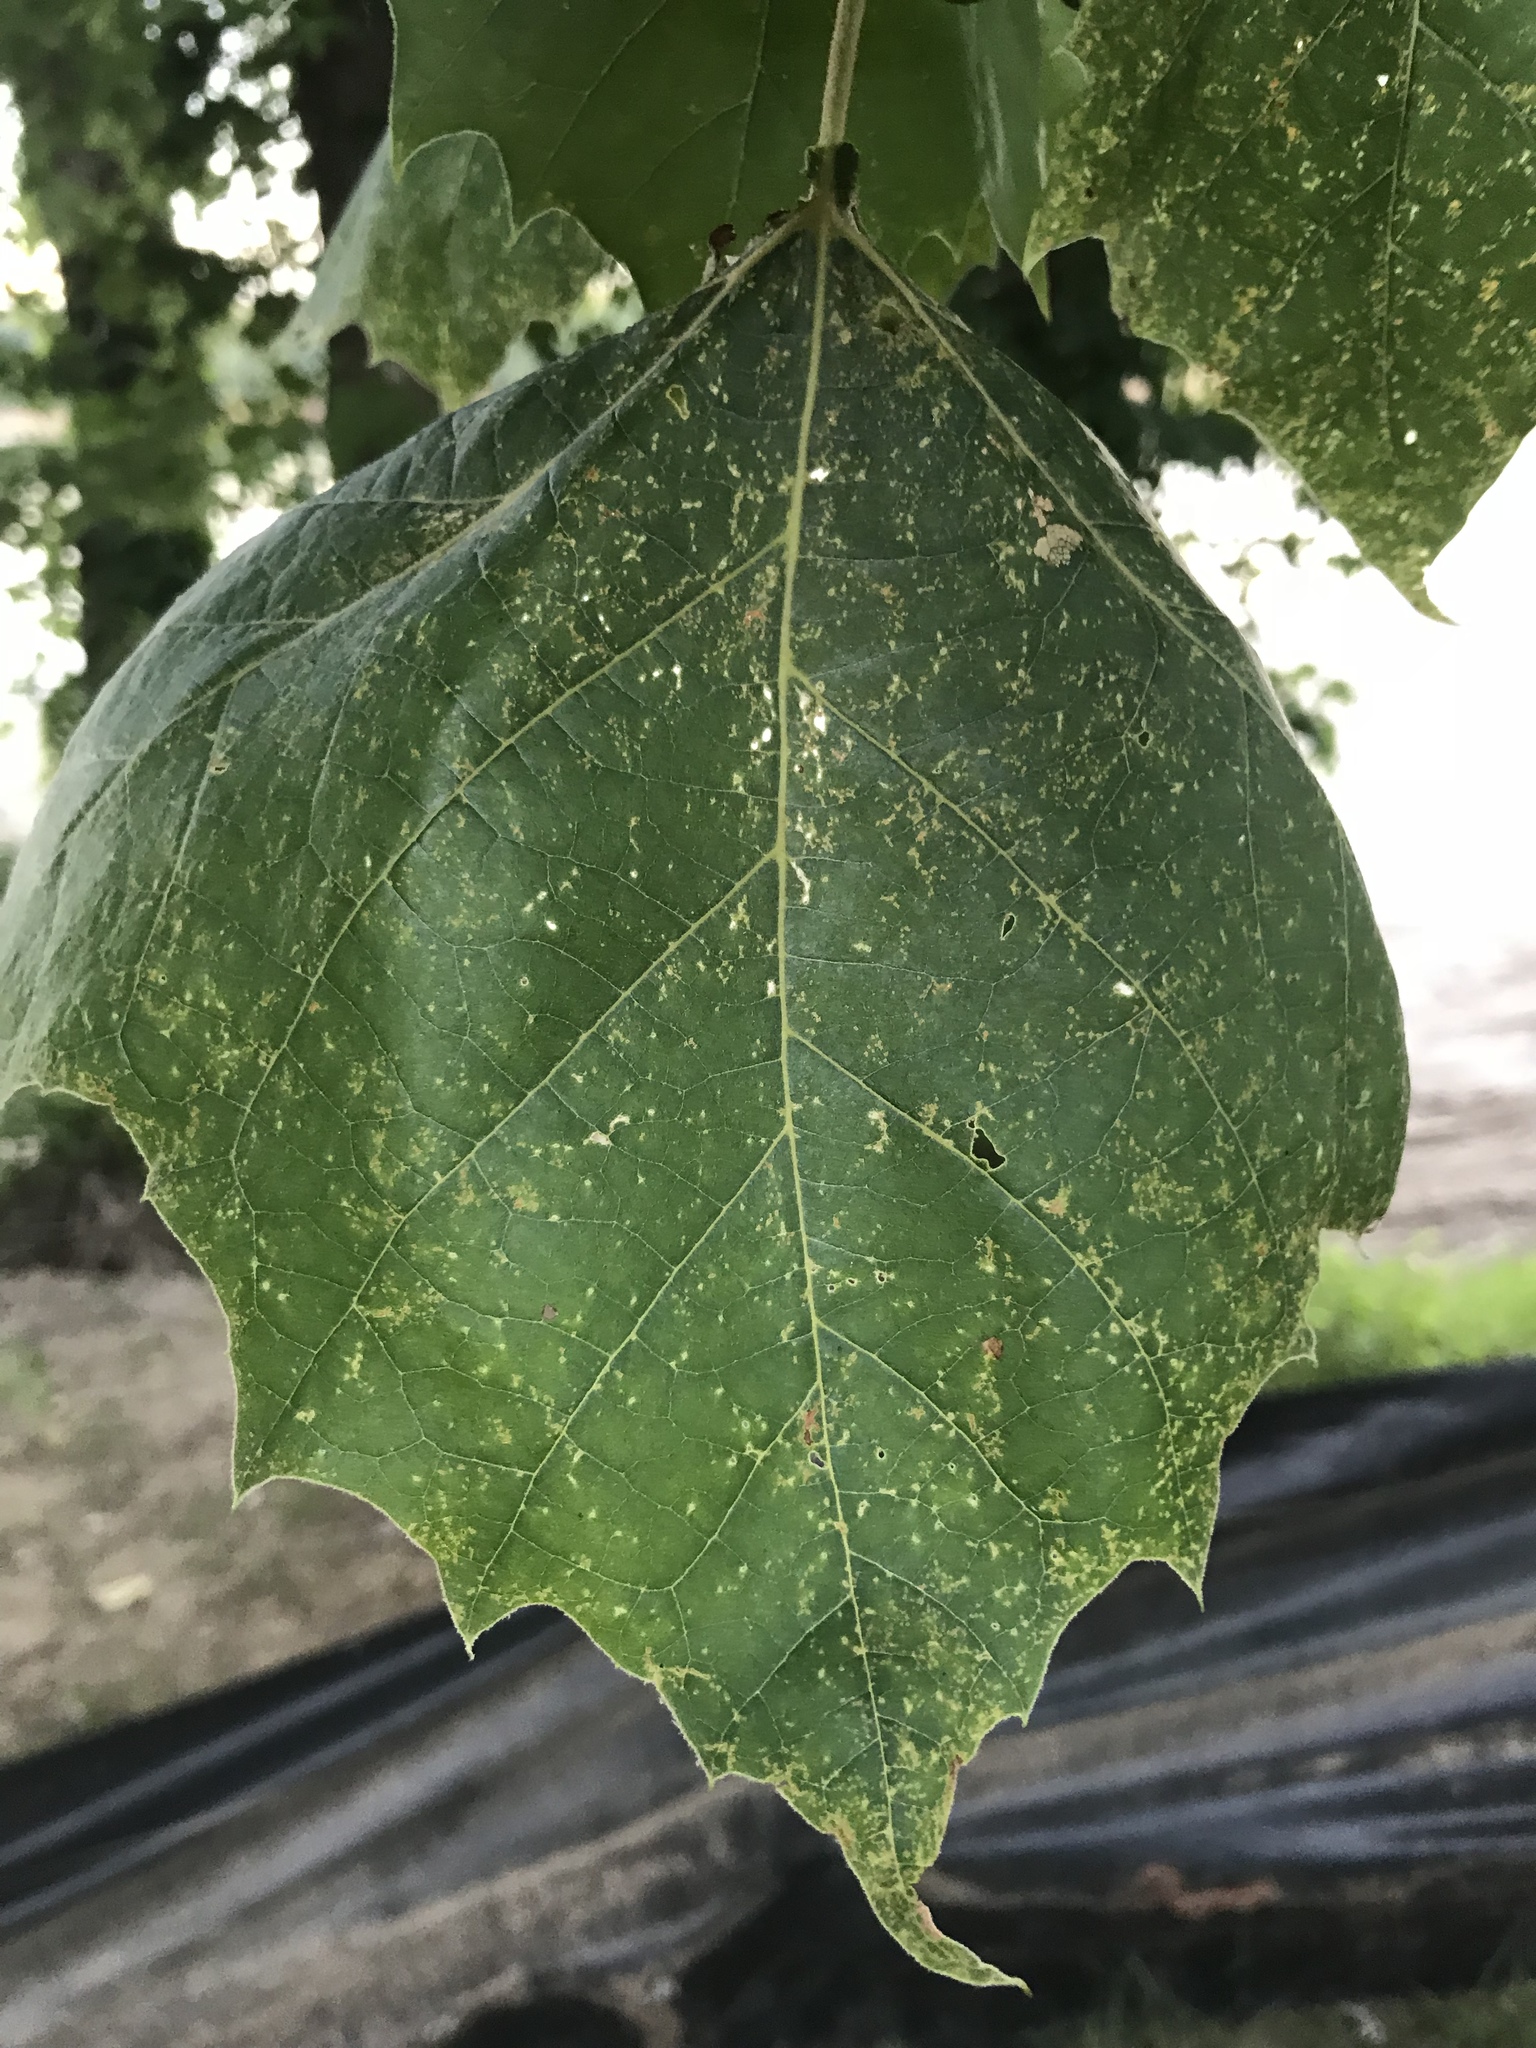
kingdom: Plantae
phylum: Tracheophyta
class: Magnoliopsida
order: Proteales
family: Platanaceae
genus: Platanus
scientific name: Platanus occidentalis
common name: American sycamore
